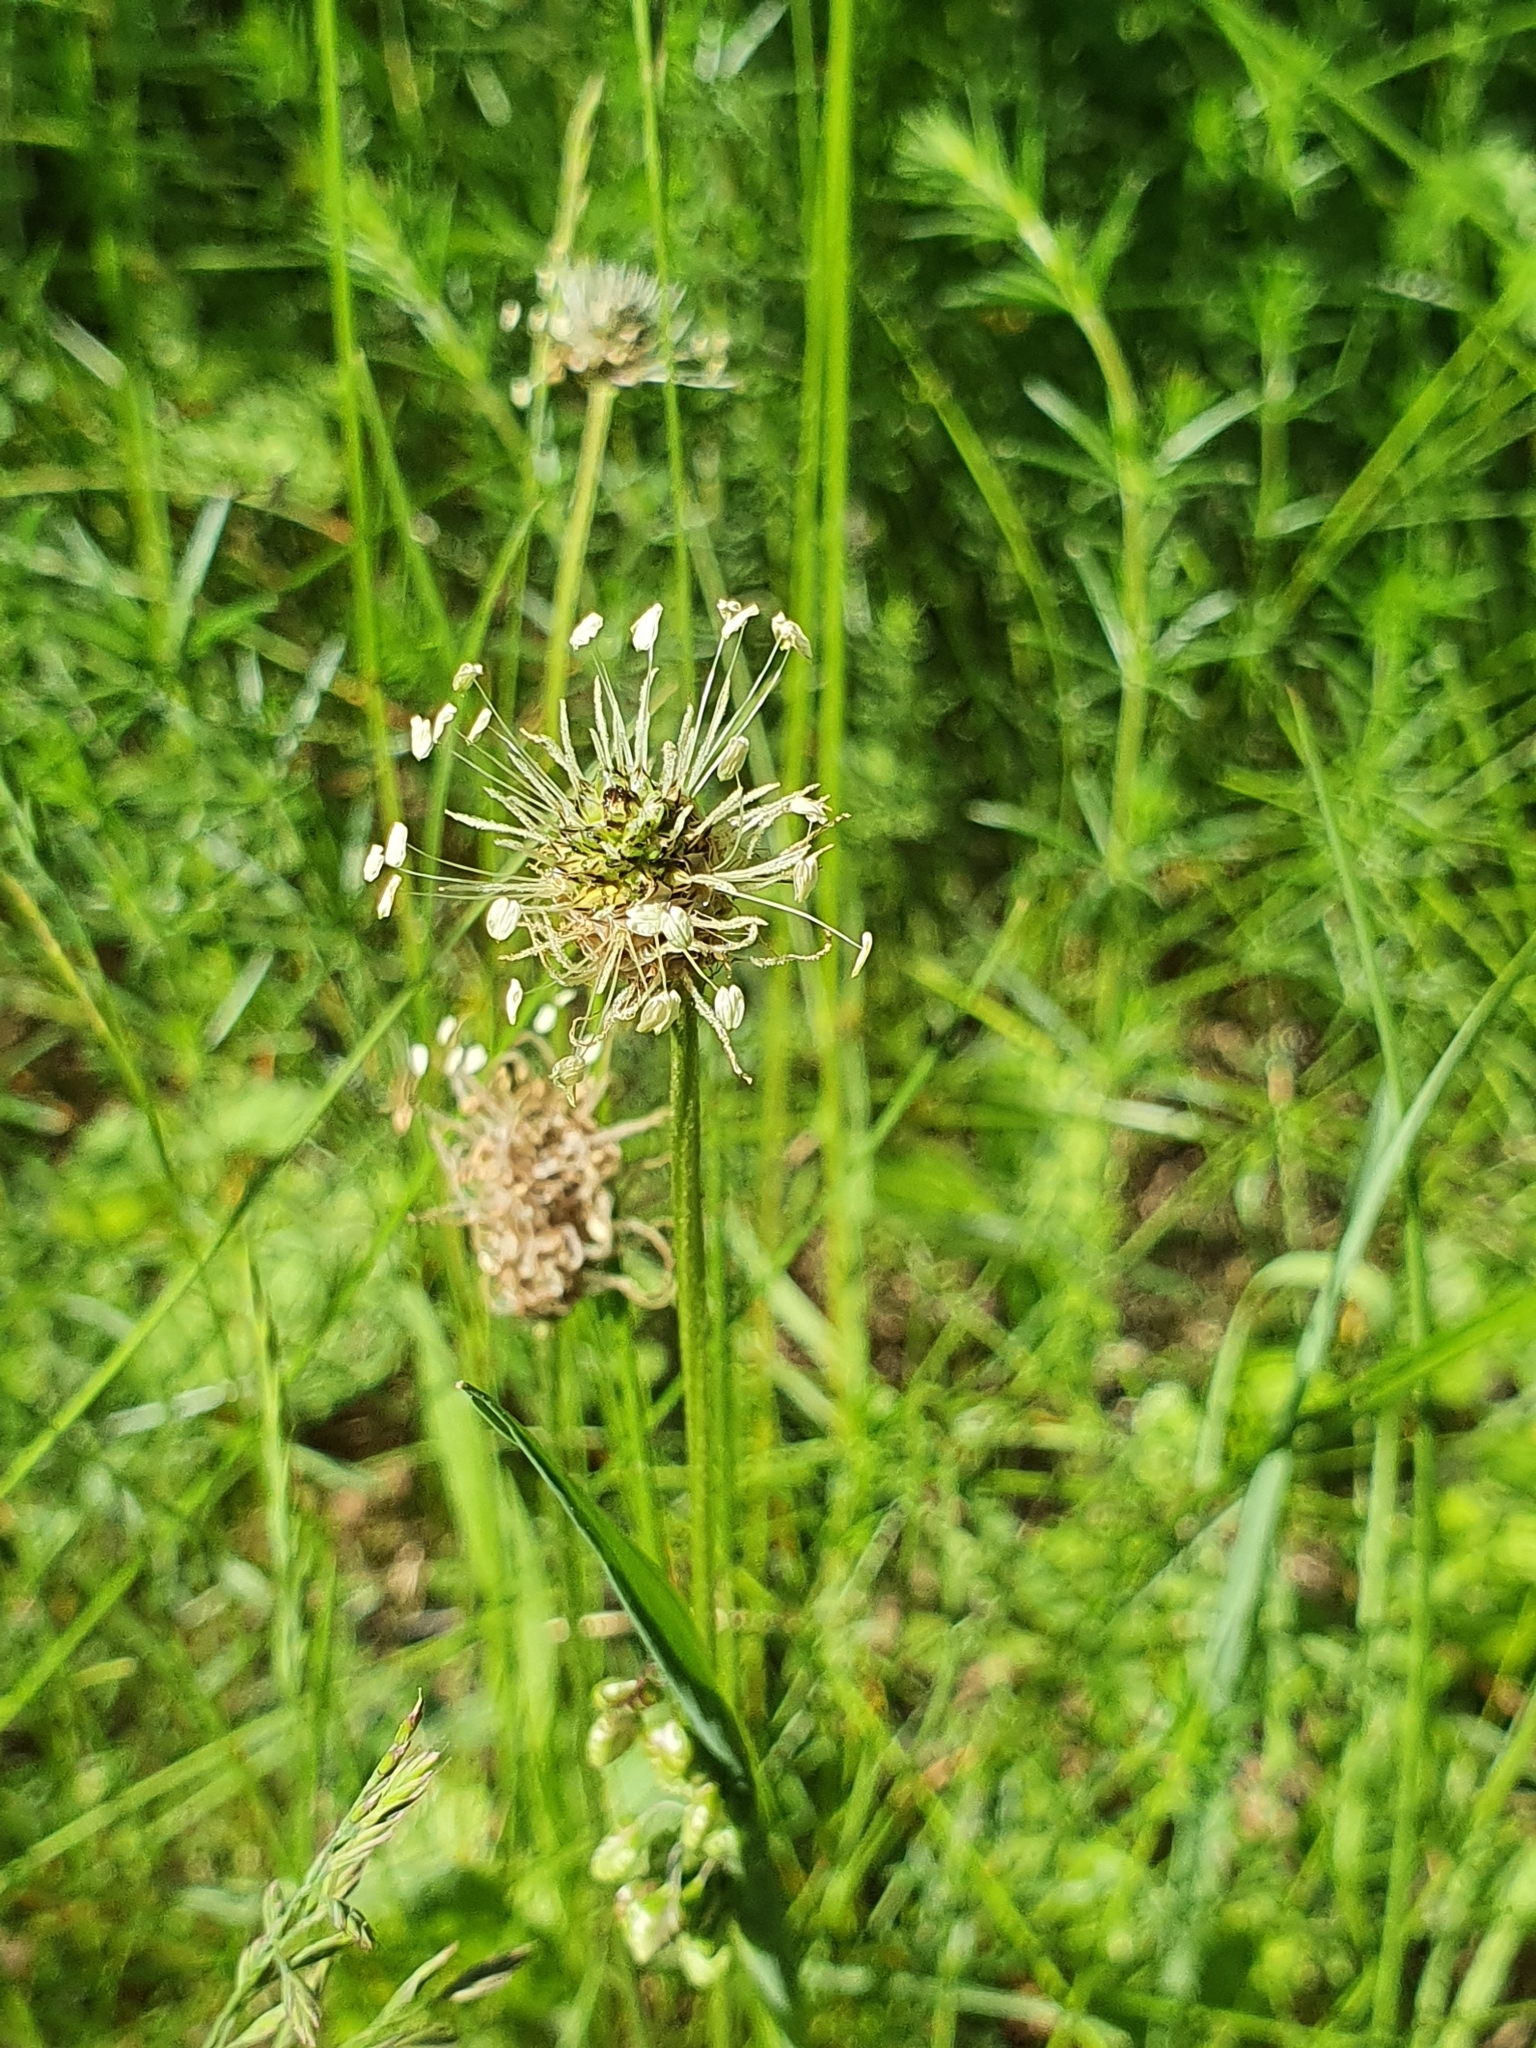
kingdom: Plantae
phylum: Tracheophyta
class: Magnoliopsida
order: Lamiales
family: Plantaginaceae
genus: Plantago
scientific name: Plantago lanceolata
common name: Ribwort plantain
